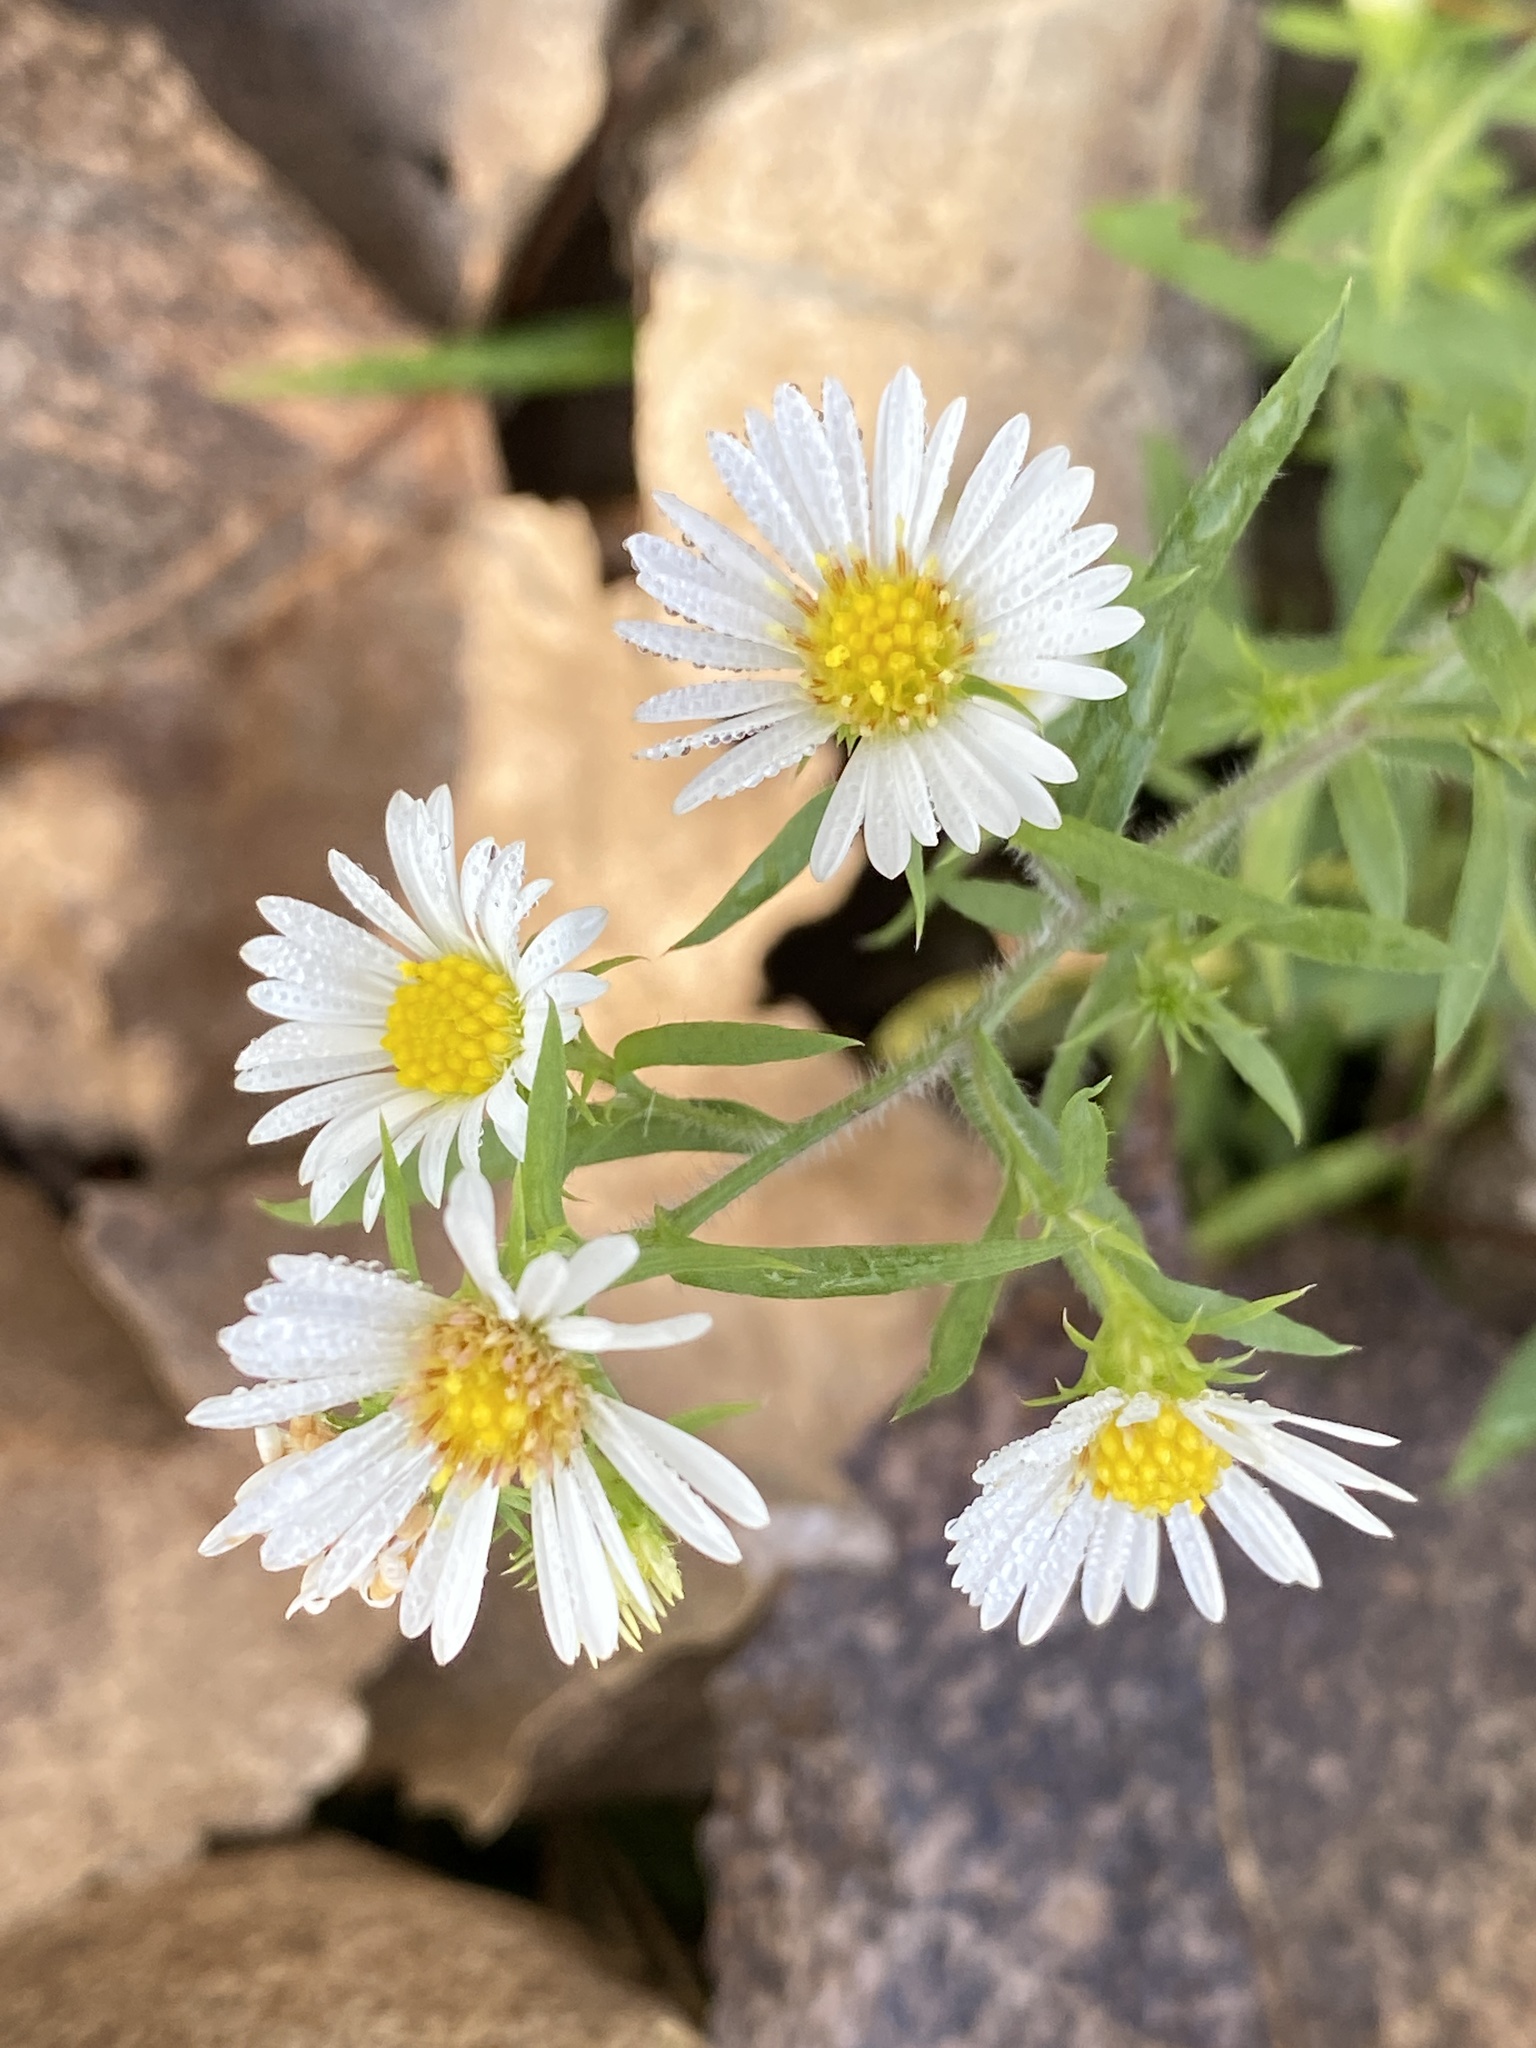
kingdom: Plantae
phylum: Tracheophyta
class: Magnoliopsida
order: Asterales
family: Asteraceae
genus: Symphyotrichum
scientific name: Symphyotrichum pilosum
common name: Awl aster
